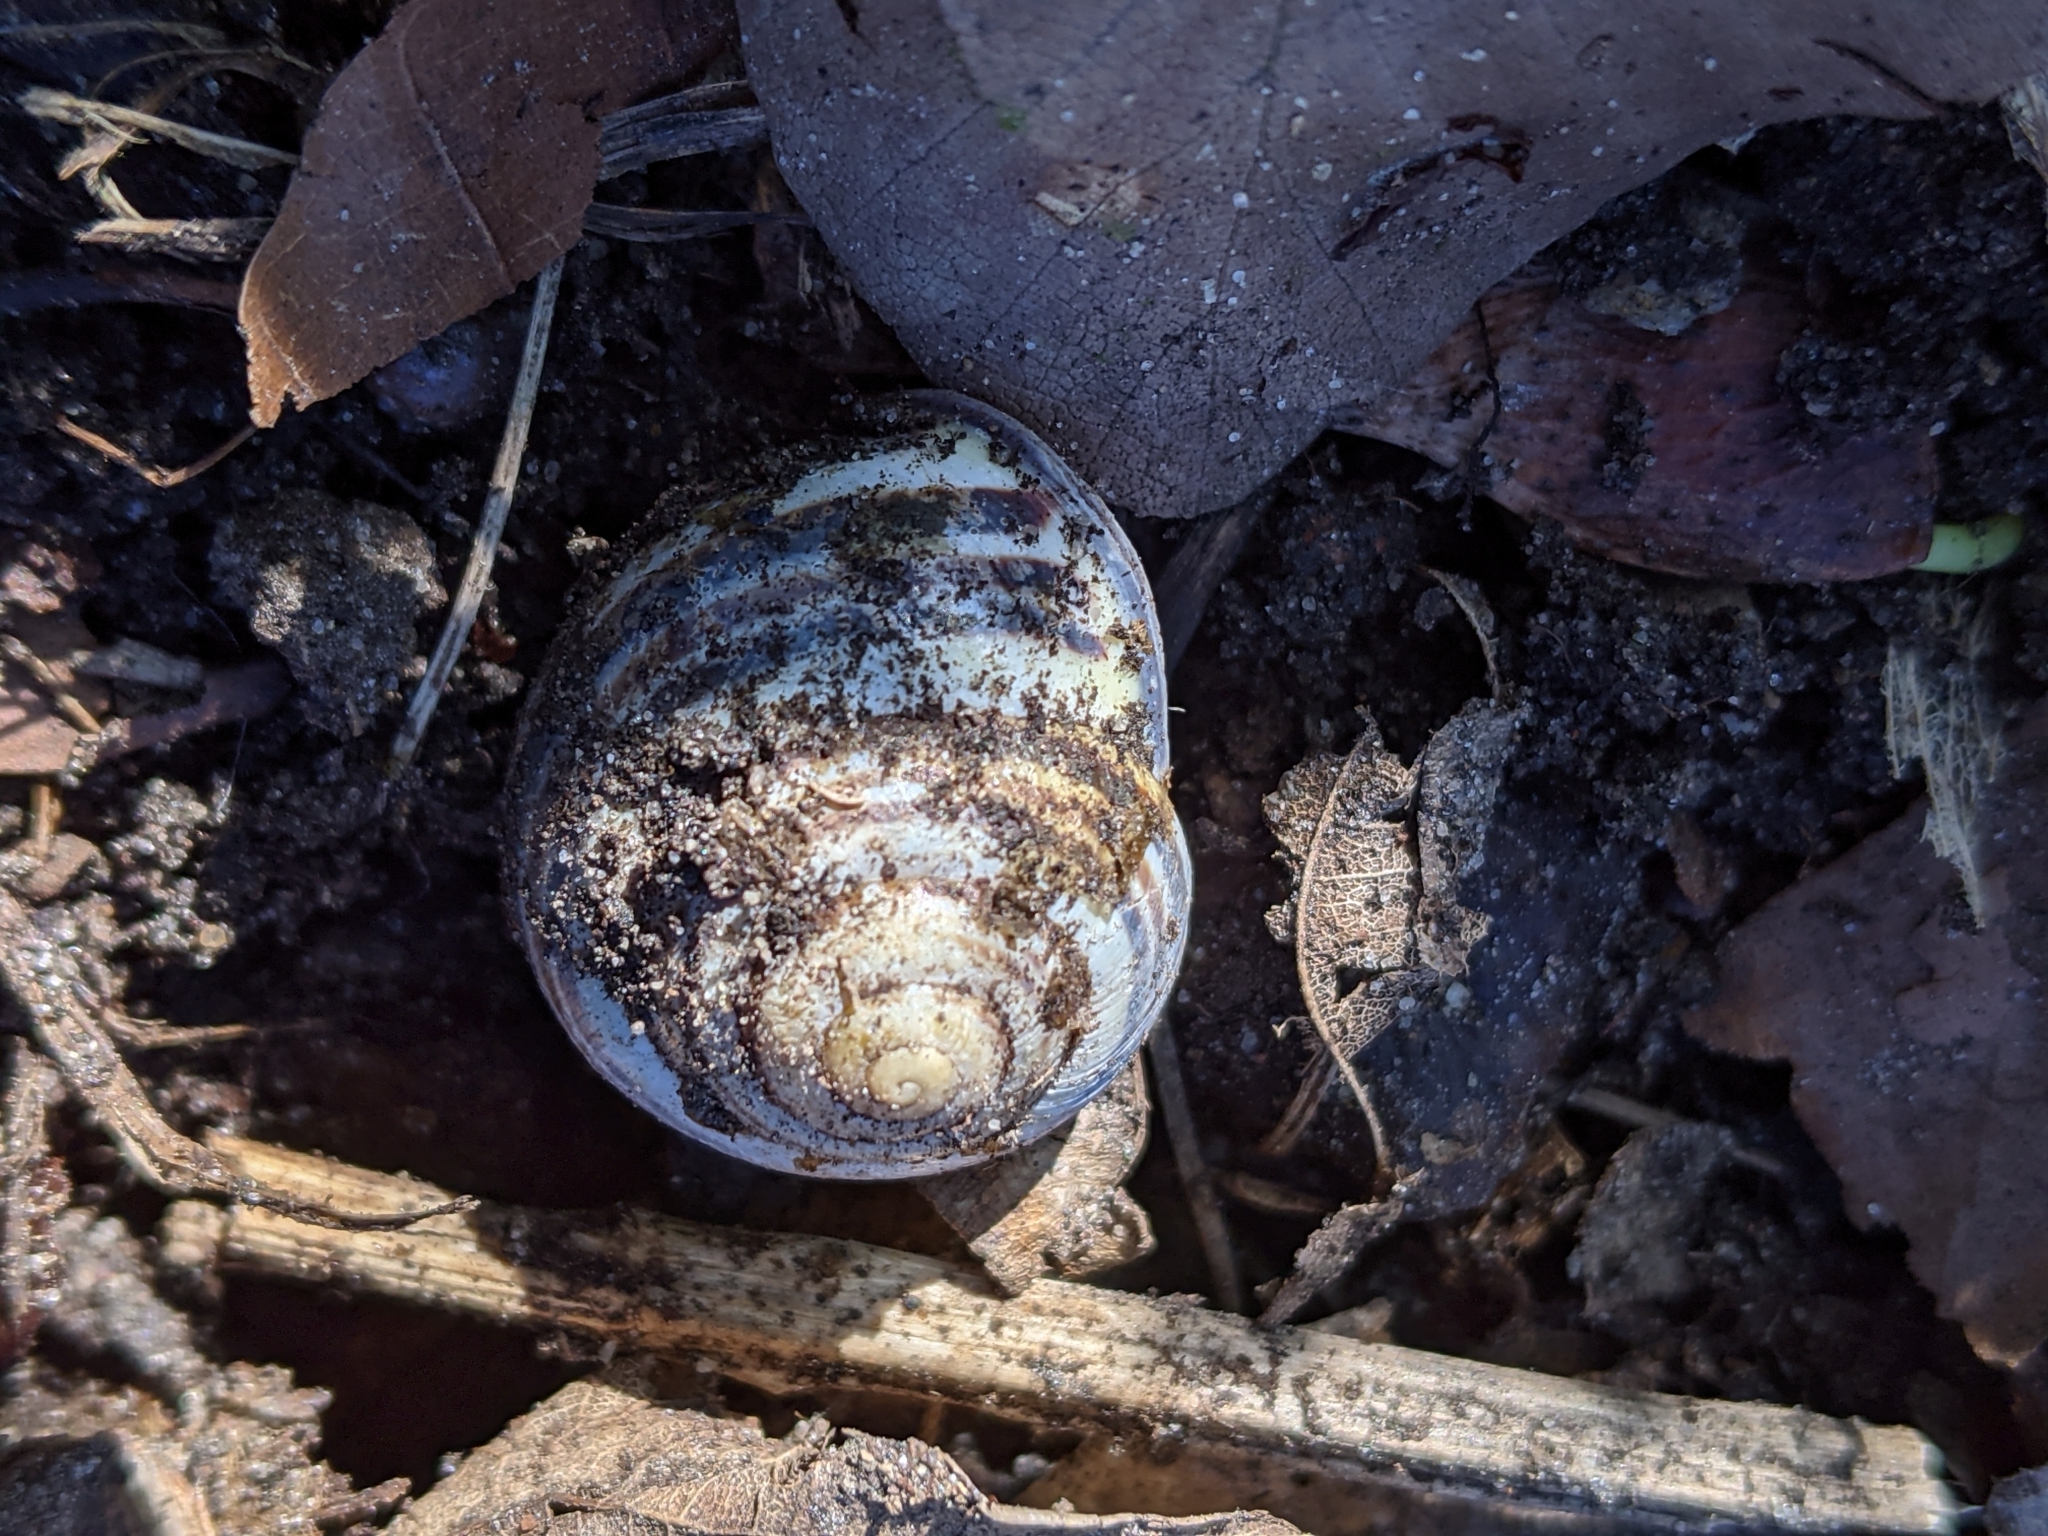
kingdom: Animalia
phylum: Mollusca
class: Gastropoda
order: Stylommatophora
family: Helicidae
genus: Cepaea
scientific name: Cepaea nemoralis
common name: Grovesnail
